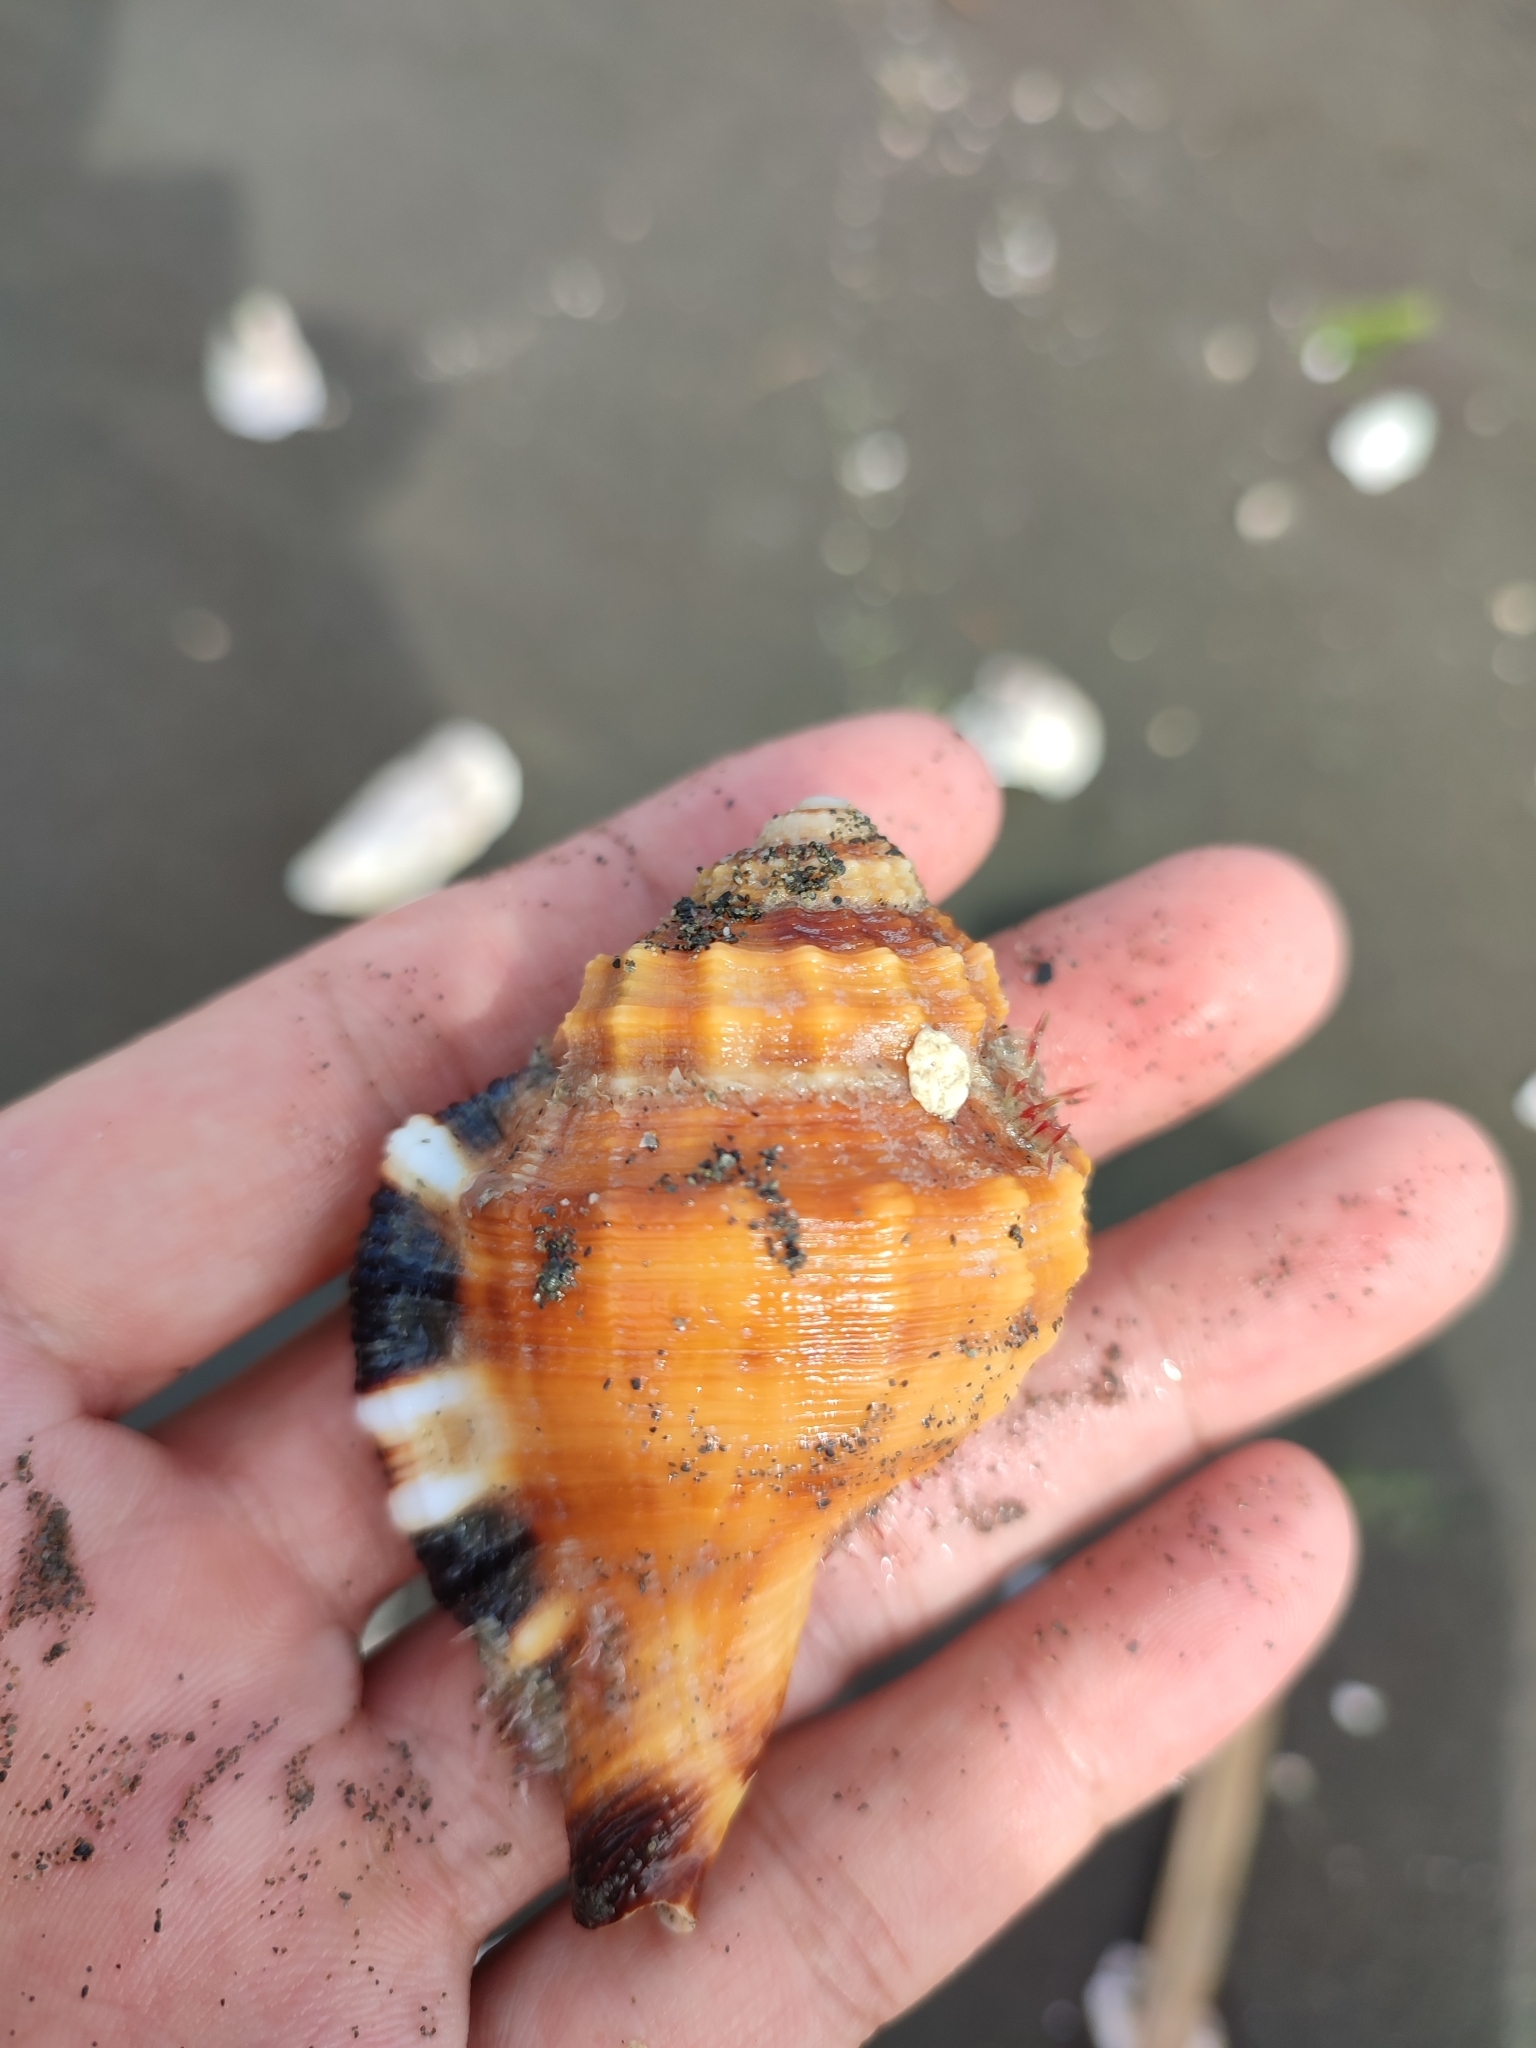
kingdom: Animalia
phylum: Mollusca
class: Gastropoda
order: Littorinimorpha
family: Cymatiidae
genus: Lotoria
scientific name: Lotoria grandimaculata
